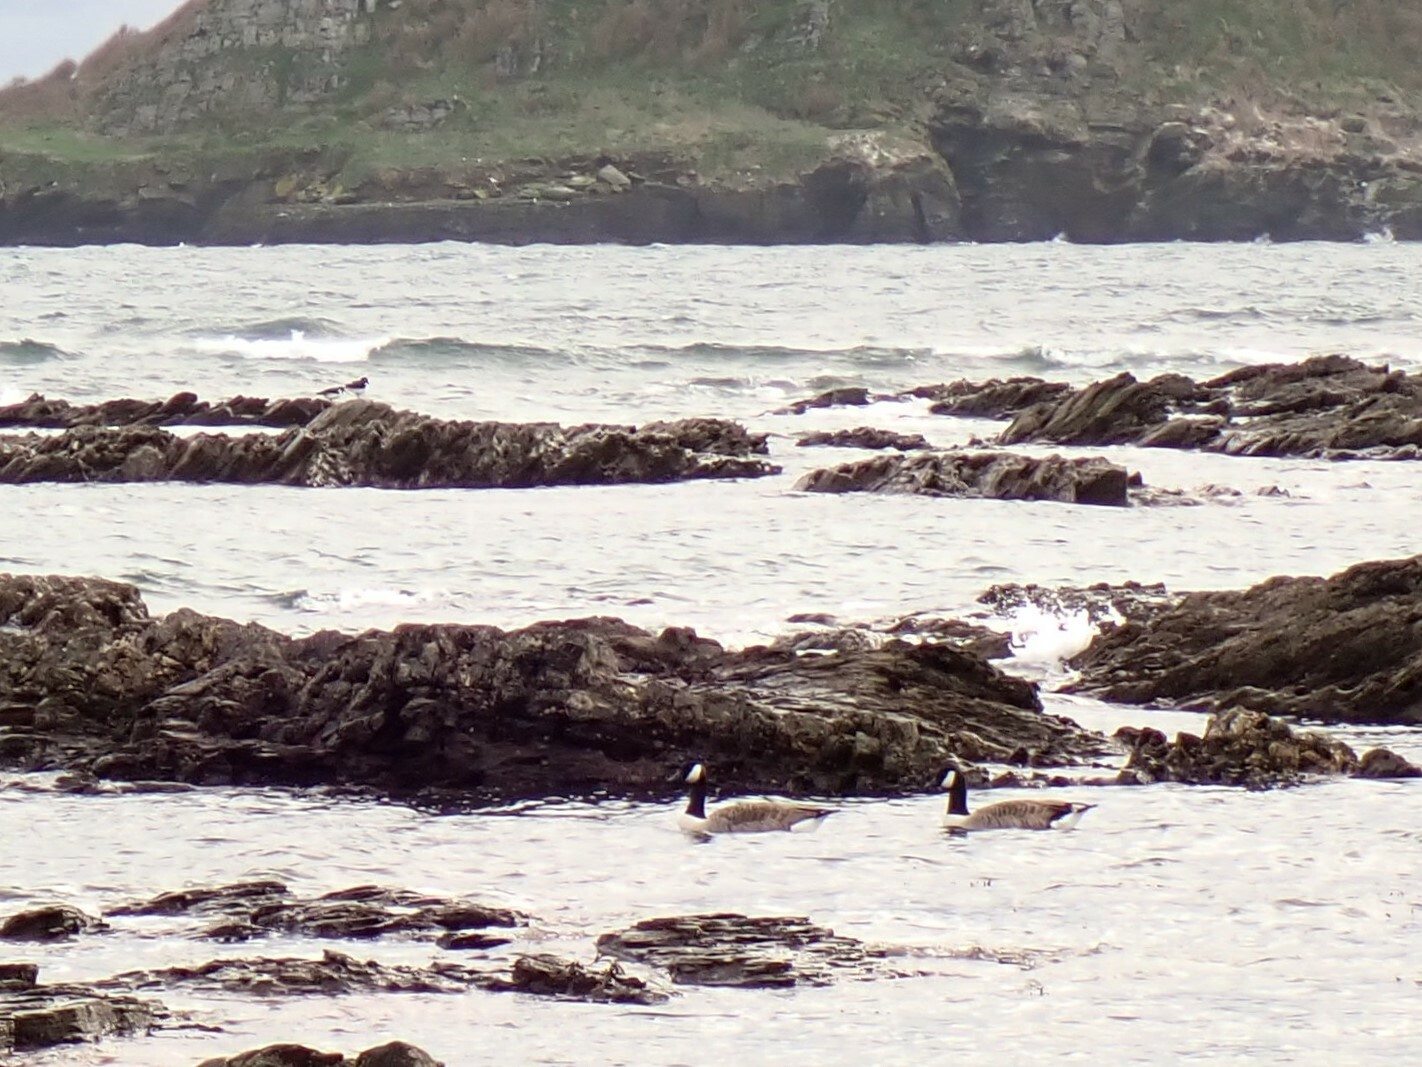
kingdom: Animalia
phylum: Chordata
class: Aves
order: Anseriformes
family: Anatidae
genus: Branta
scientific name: Branta canadensis
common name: Canada goose
